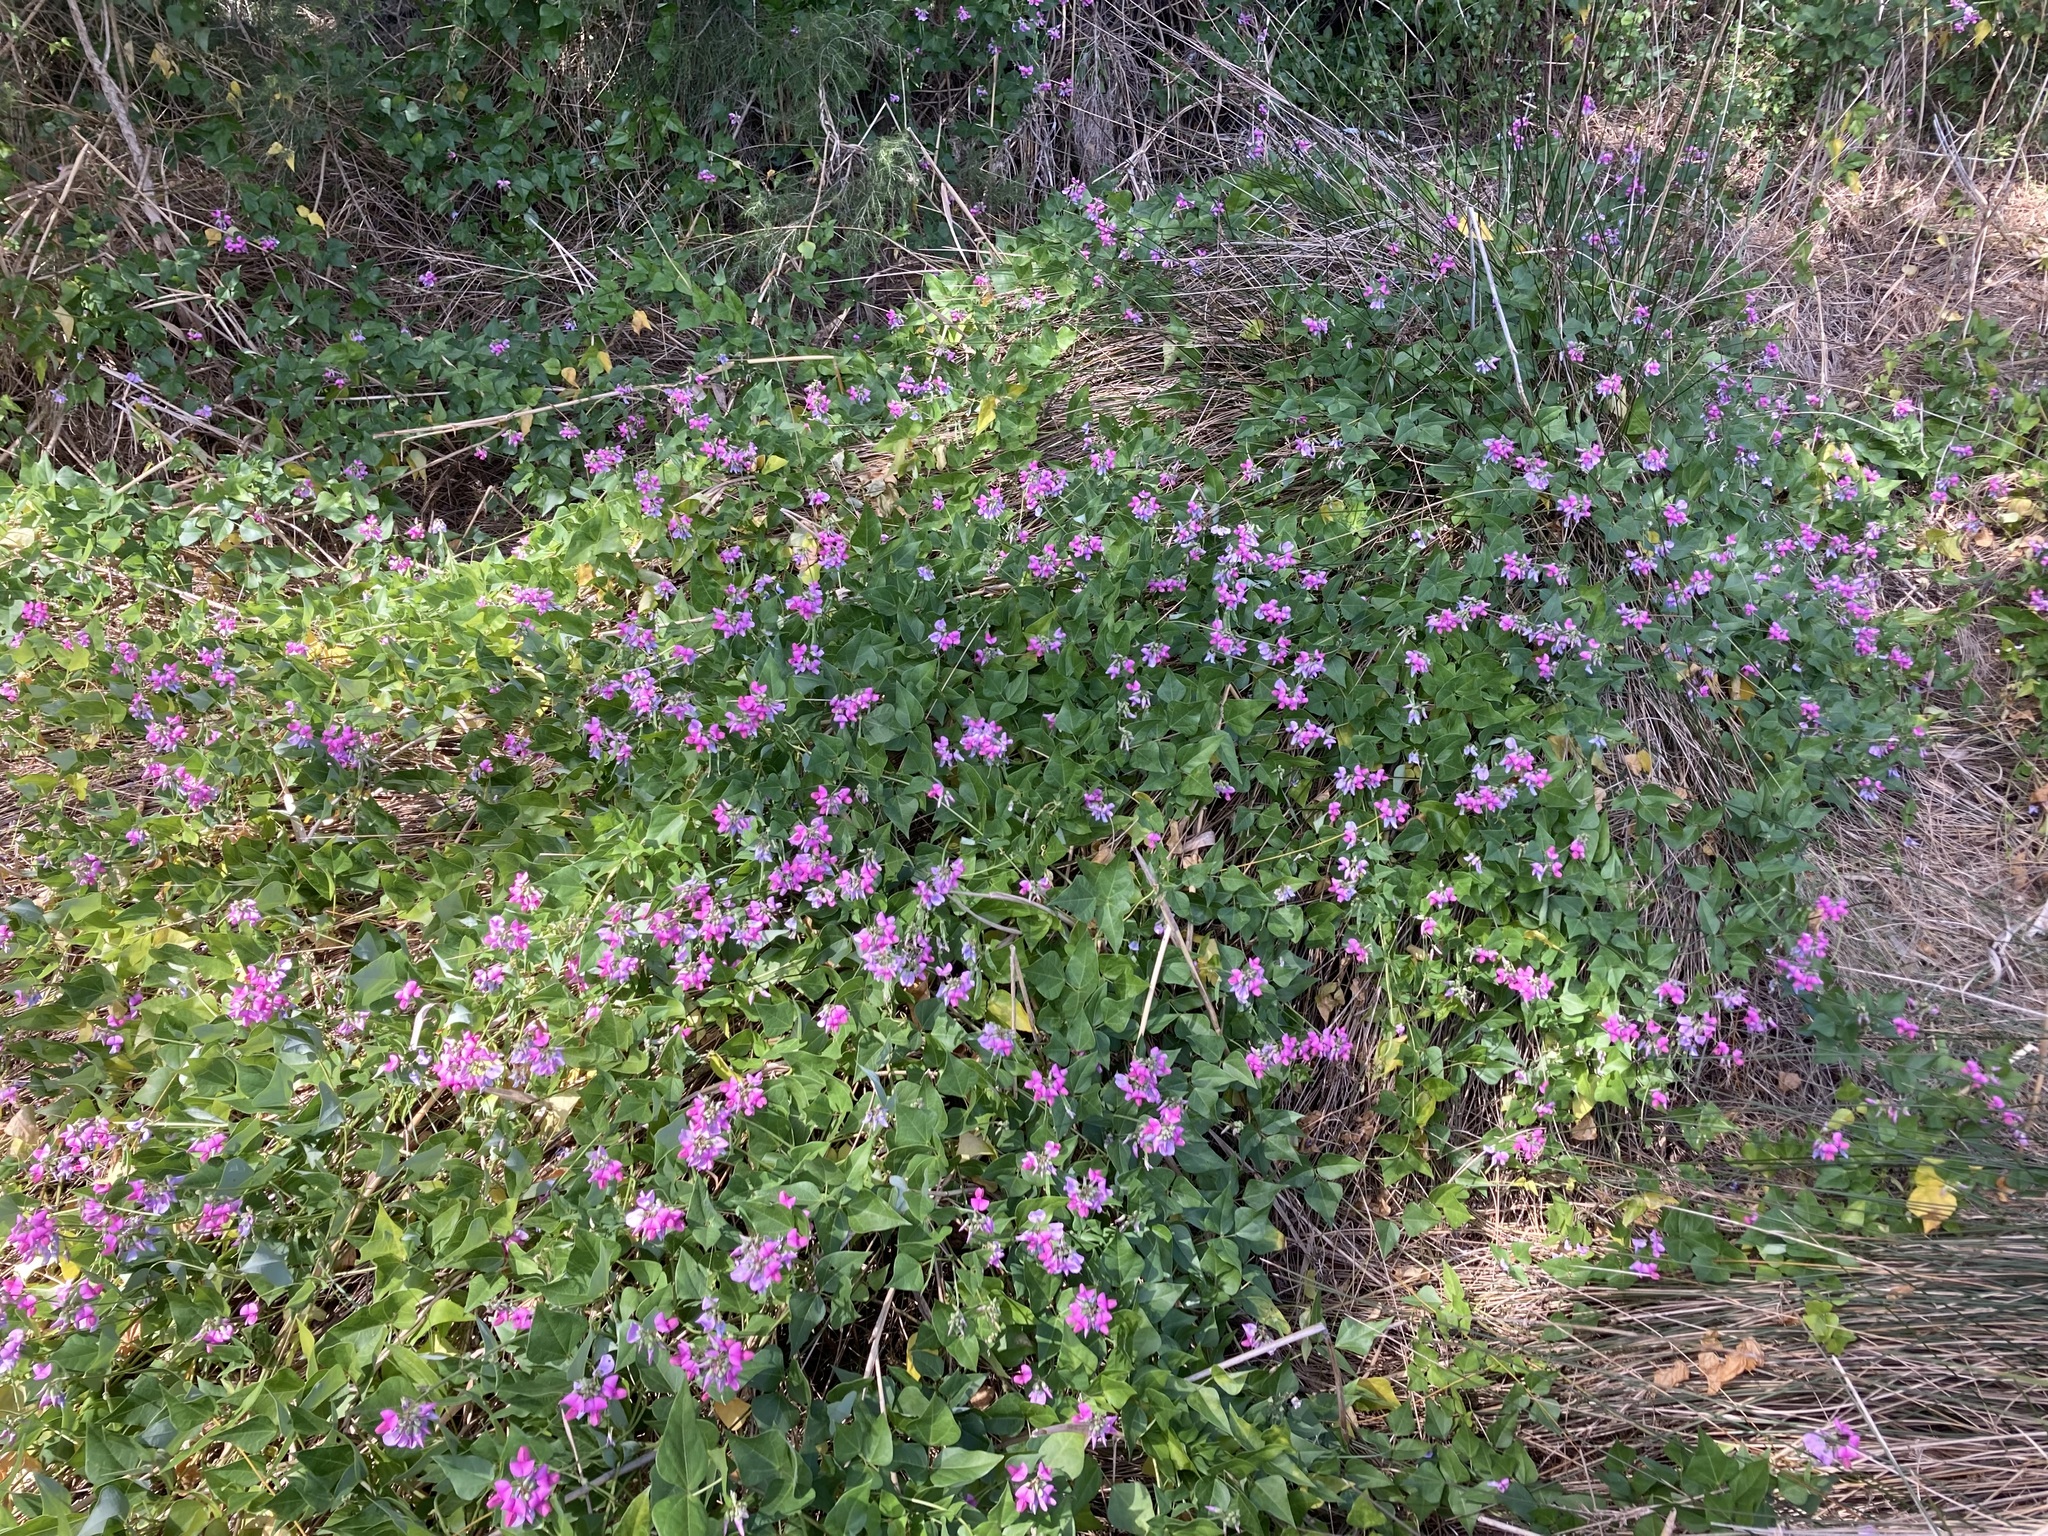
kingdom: Plantae
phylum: Tracheophyta
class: Magnoliopsida
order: Fabales
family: Fabaceae
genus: Dipogon
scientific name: Dipogon lignosus
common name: Okie bean
